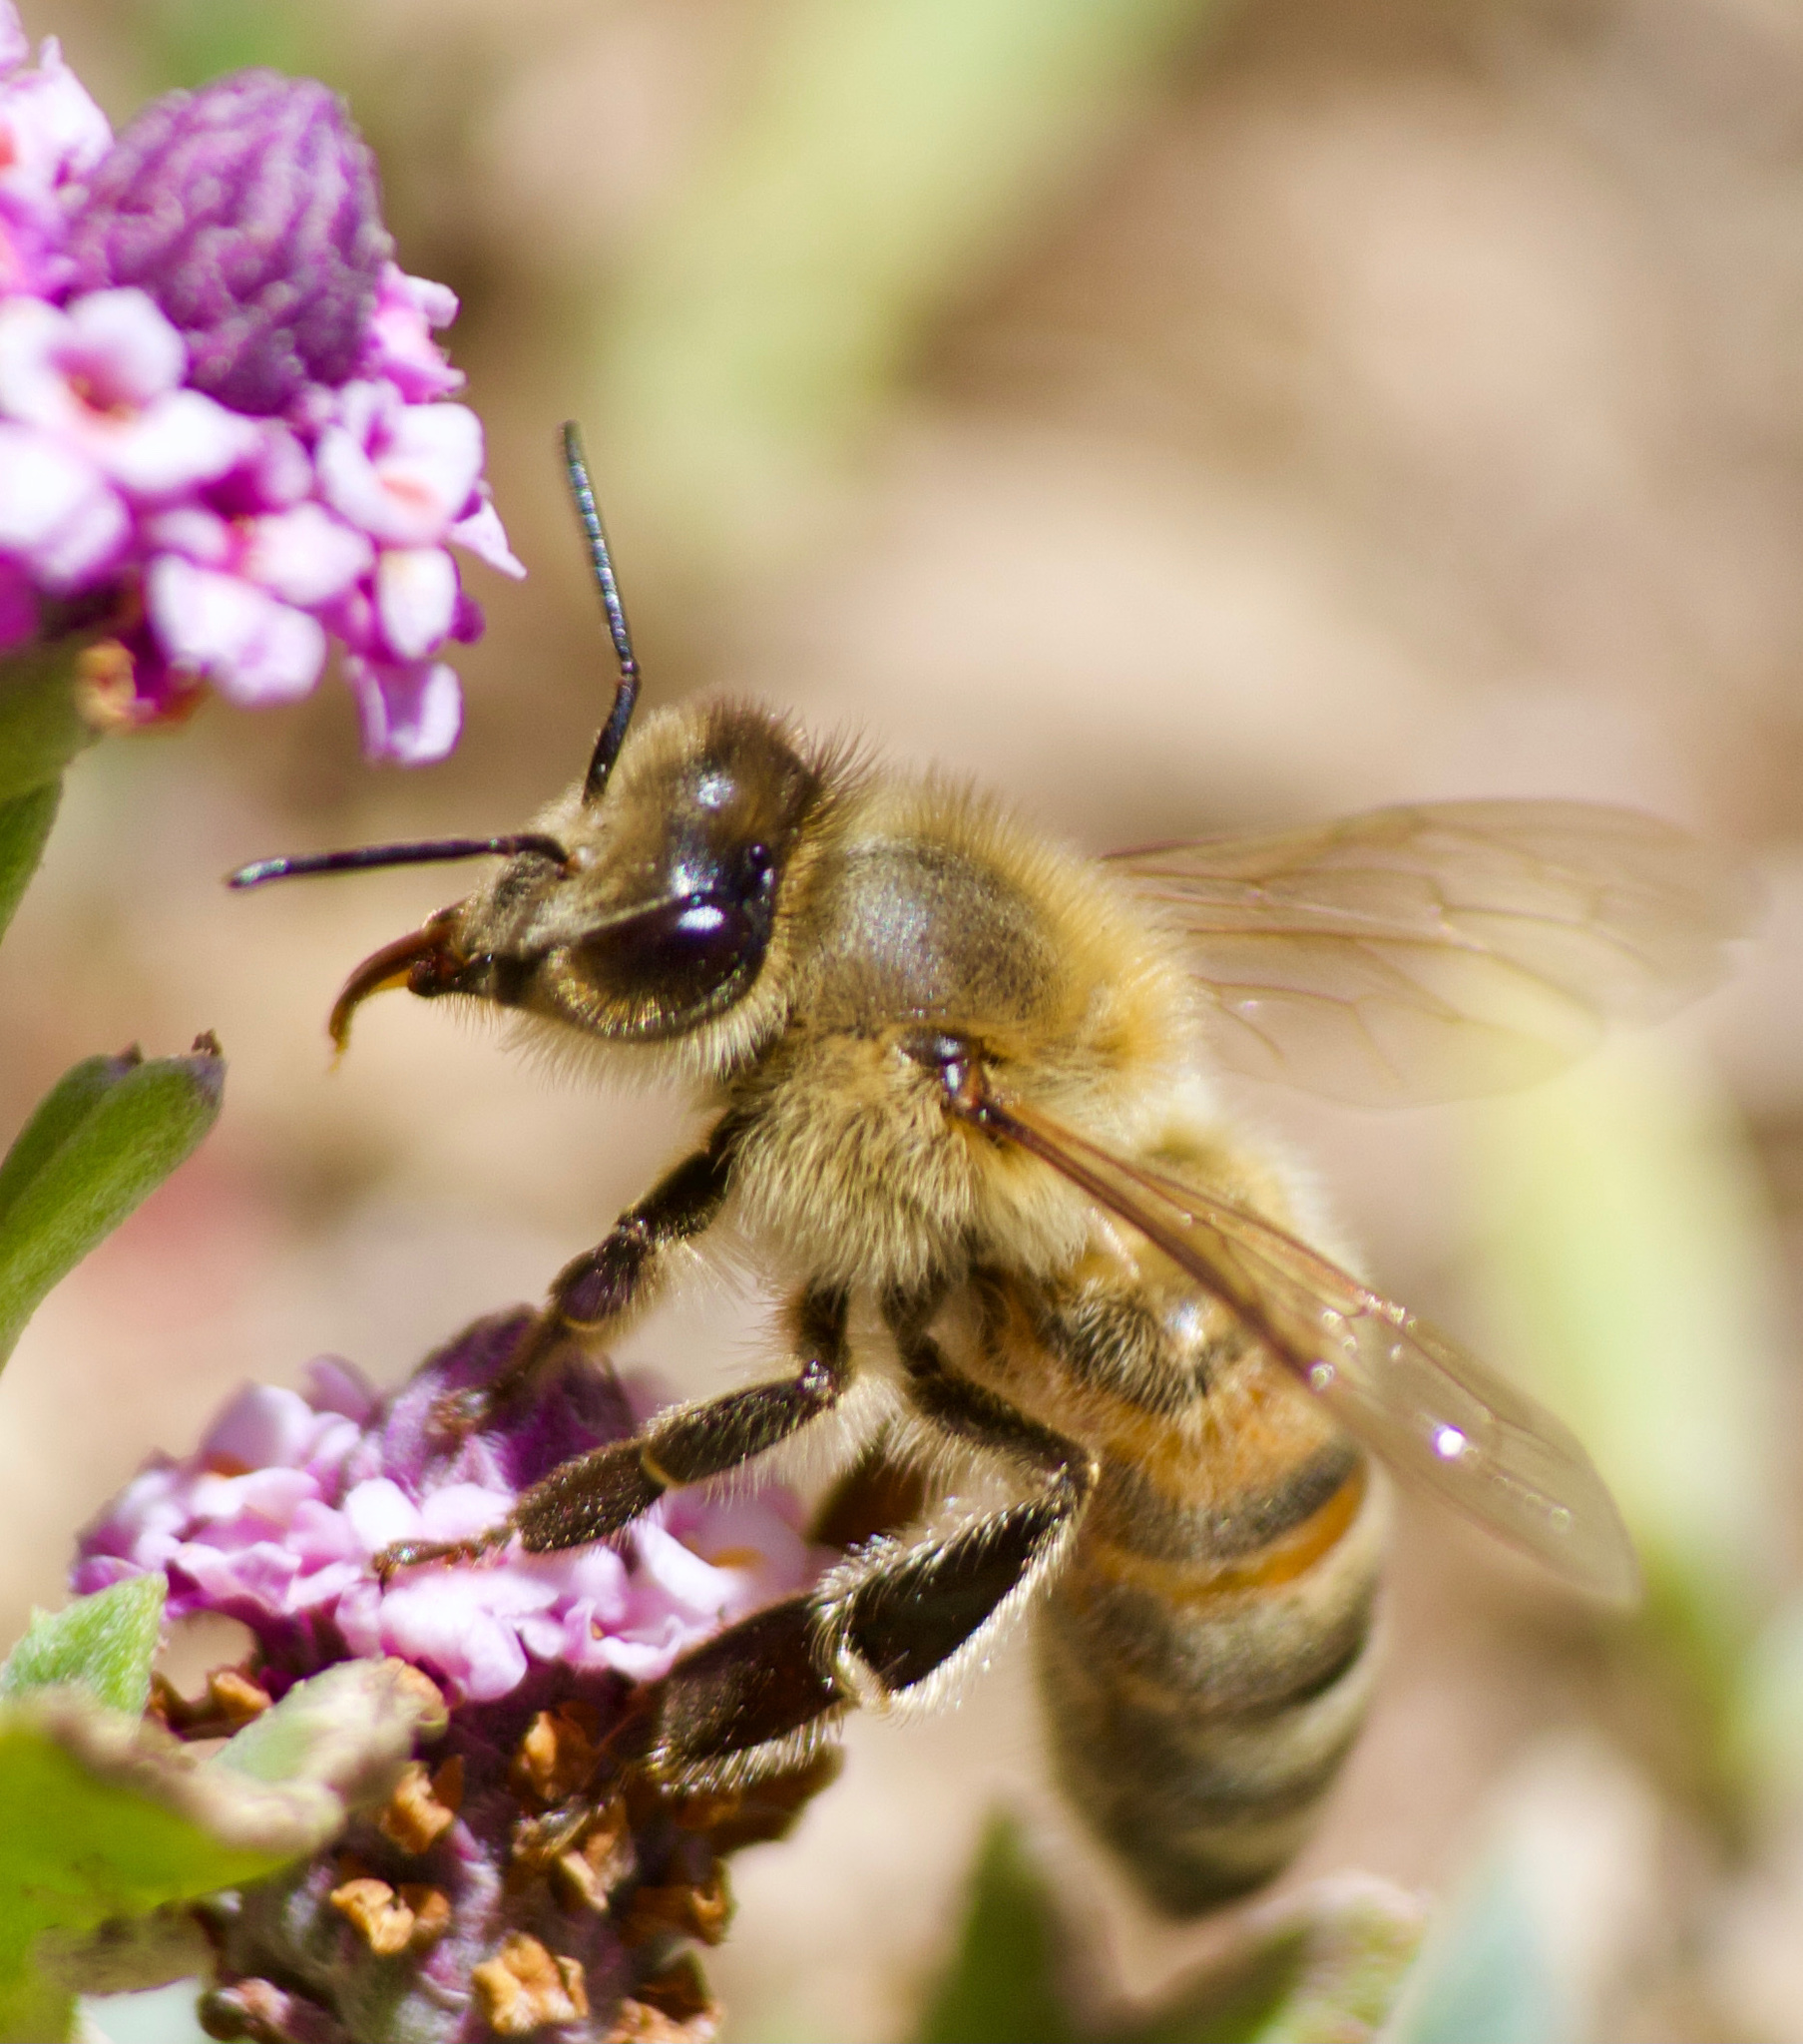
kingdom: Animalia
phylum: Arthropoda
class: Insecta
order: Hymenoptera
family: Apidae
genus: Apis
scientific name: Apis mellifera
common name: Honey bee
